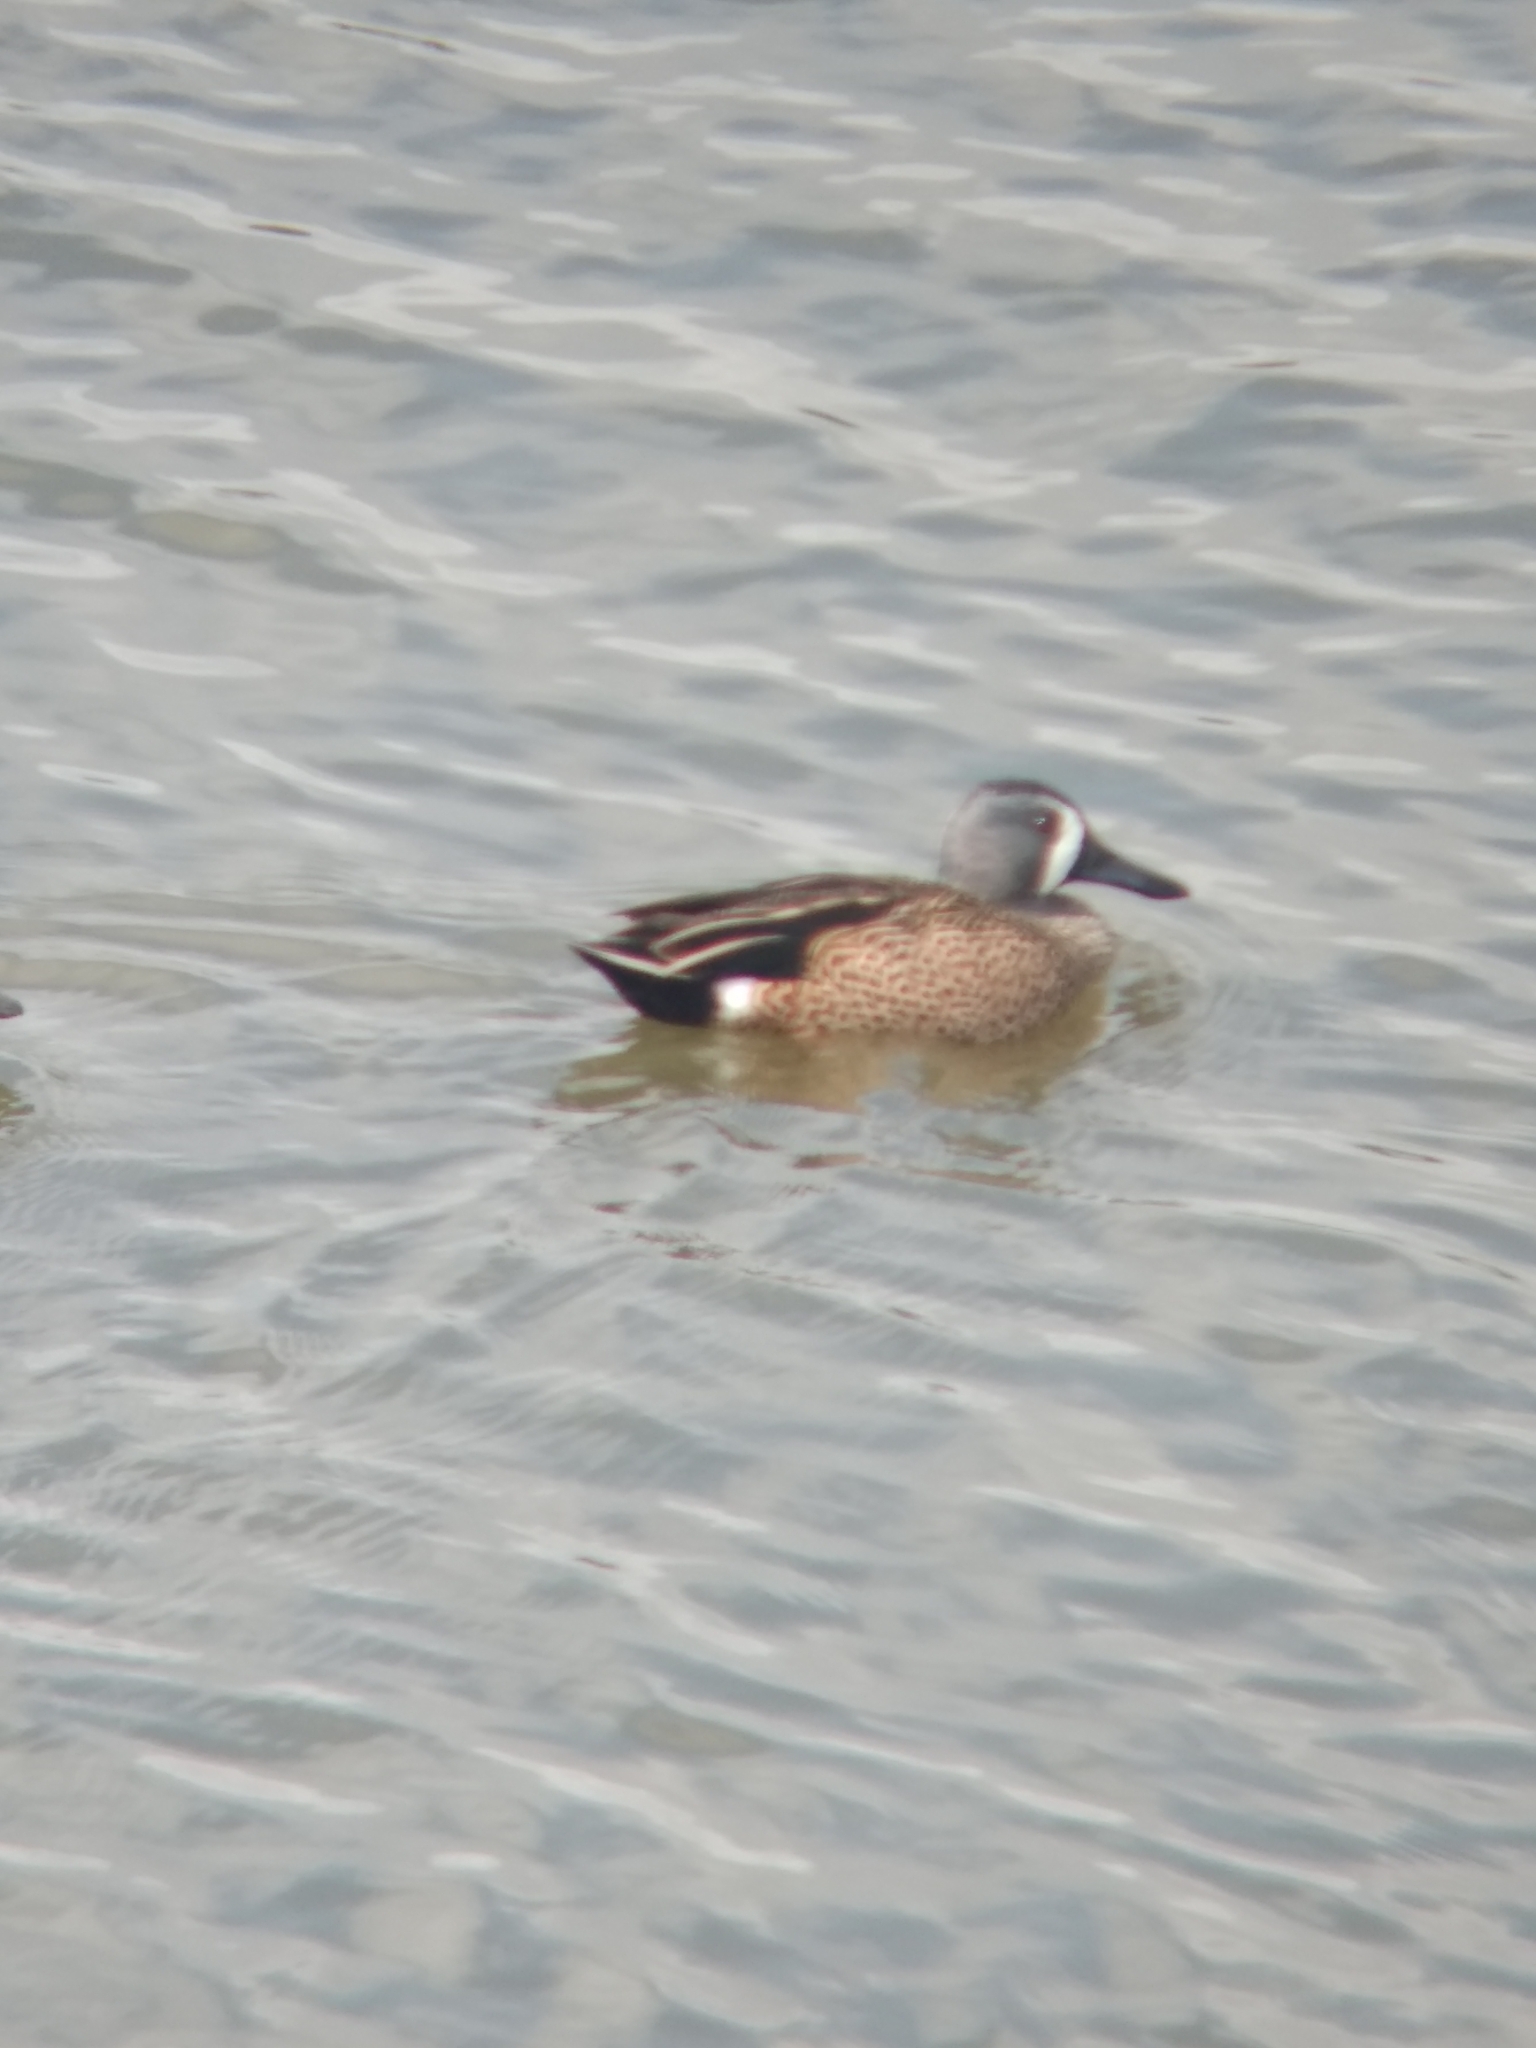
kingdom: Animalia
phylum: Chordata
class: Aves
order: Anseriformes
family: Anatidae
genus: Spatula
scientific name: Spatula discors
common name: Blue-winged teal
